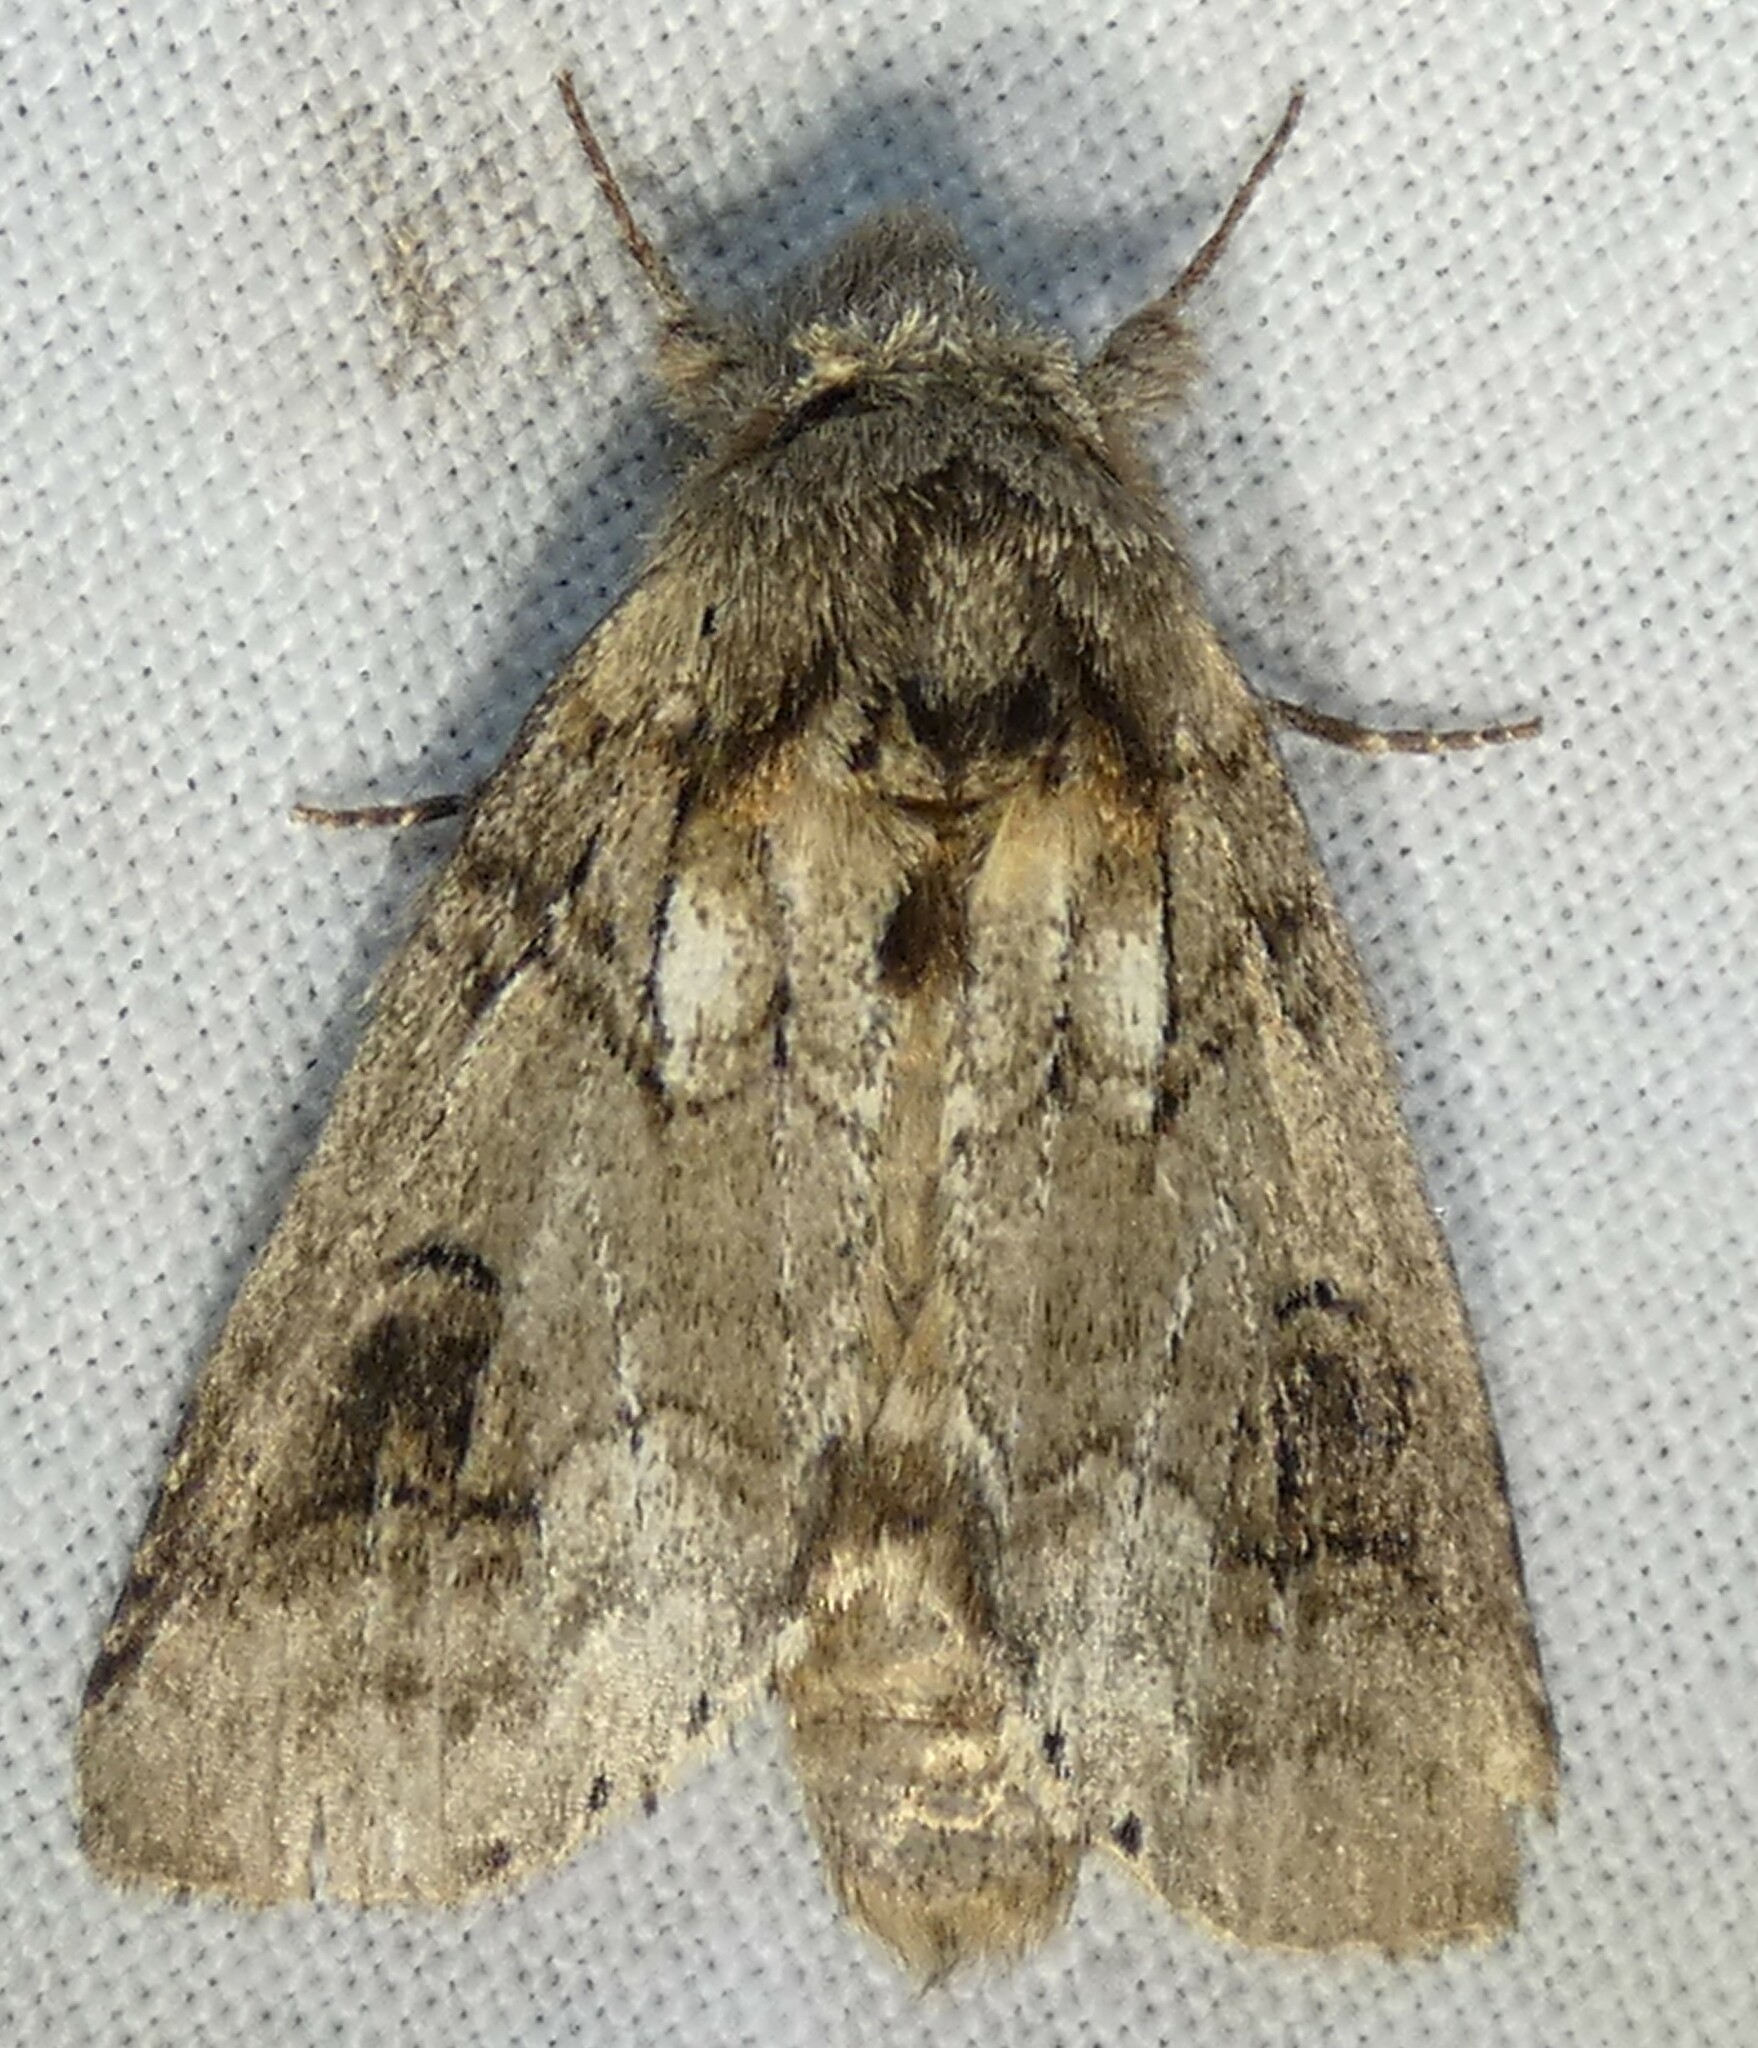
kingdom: Animalia
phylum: Arthropoda
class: Insecta
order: Lepidoptera
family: Notodontidae
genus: Lochmaeus
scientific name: Lochmaeus bilineata
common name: Double-lined prominent
